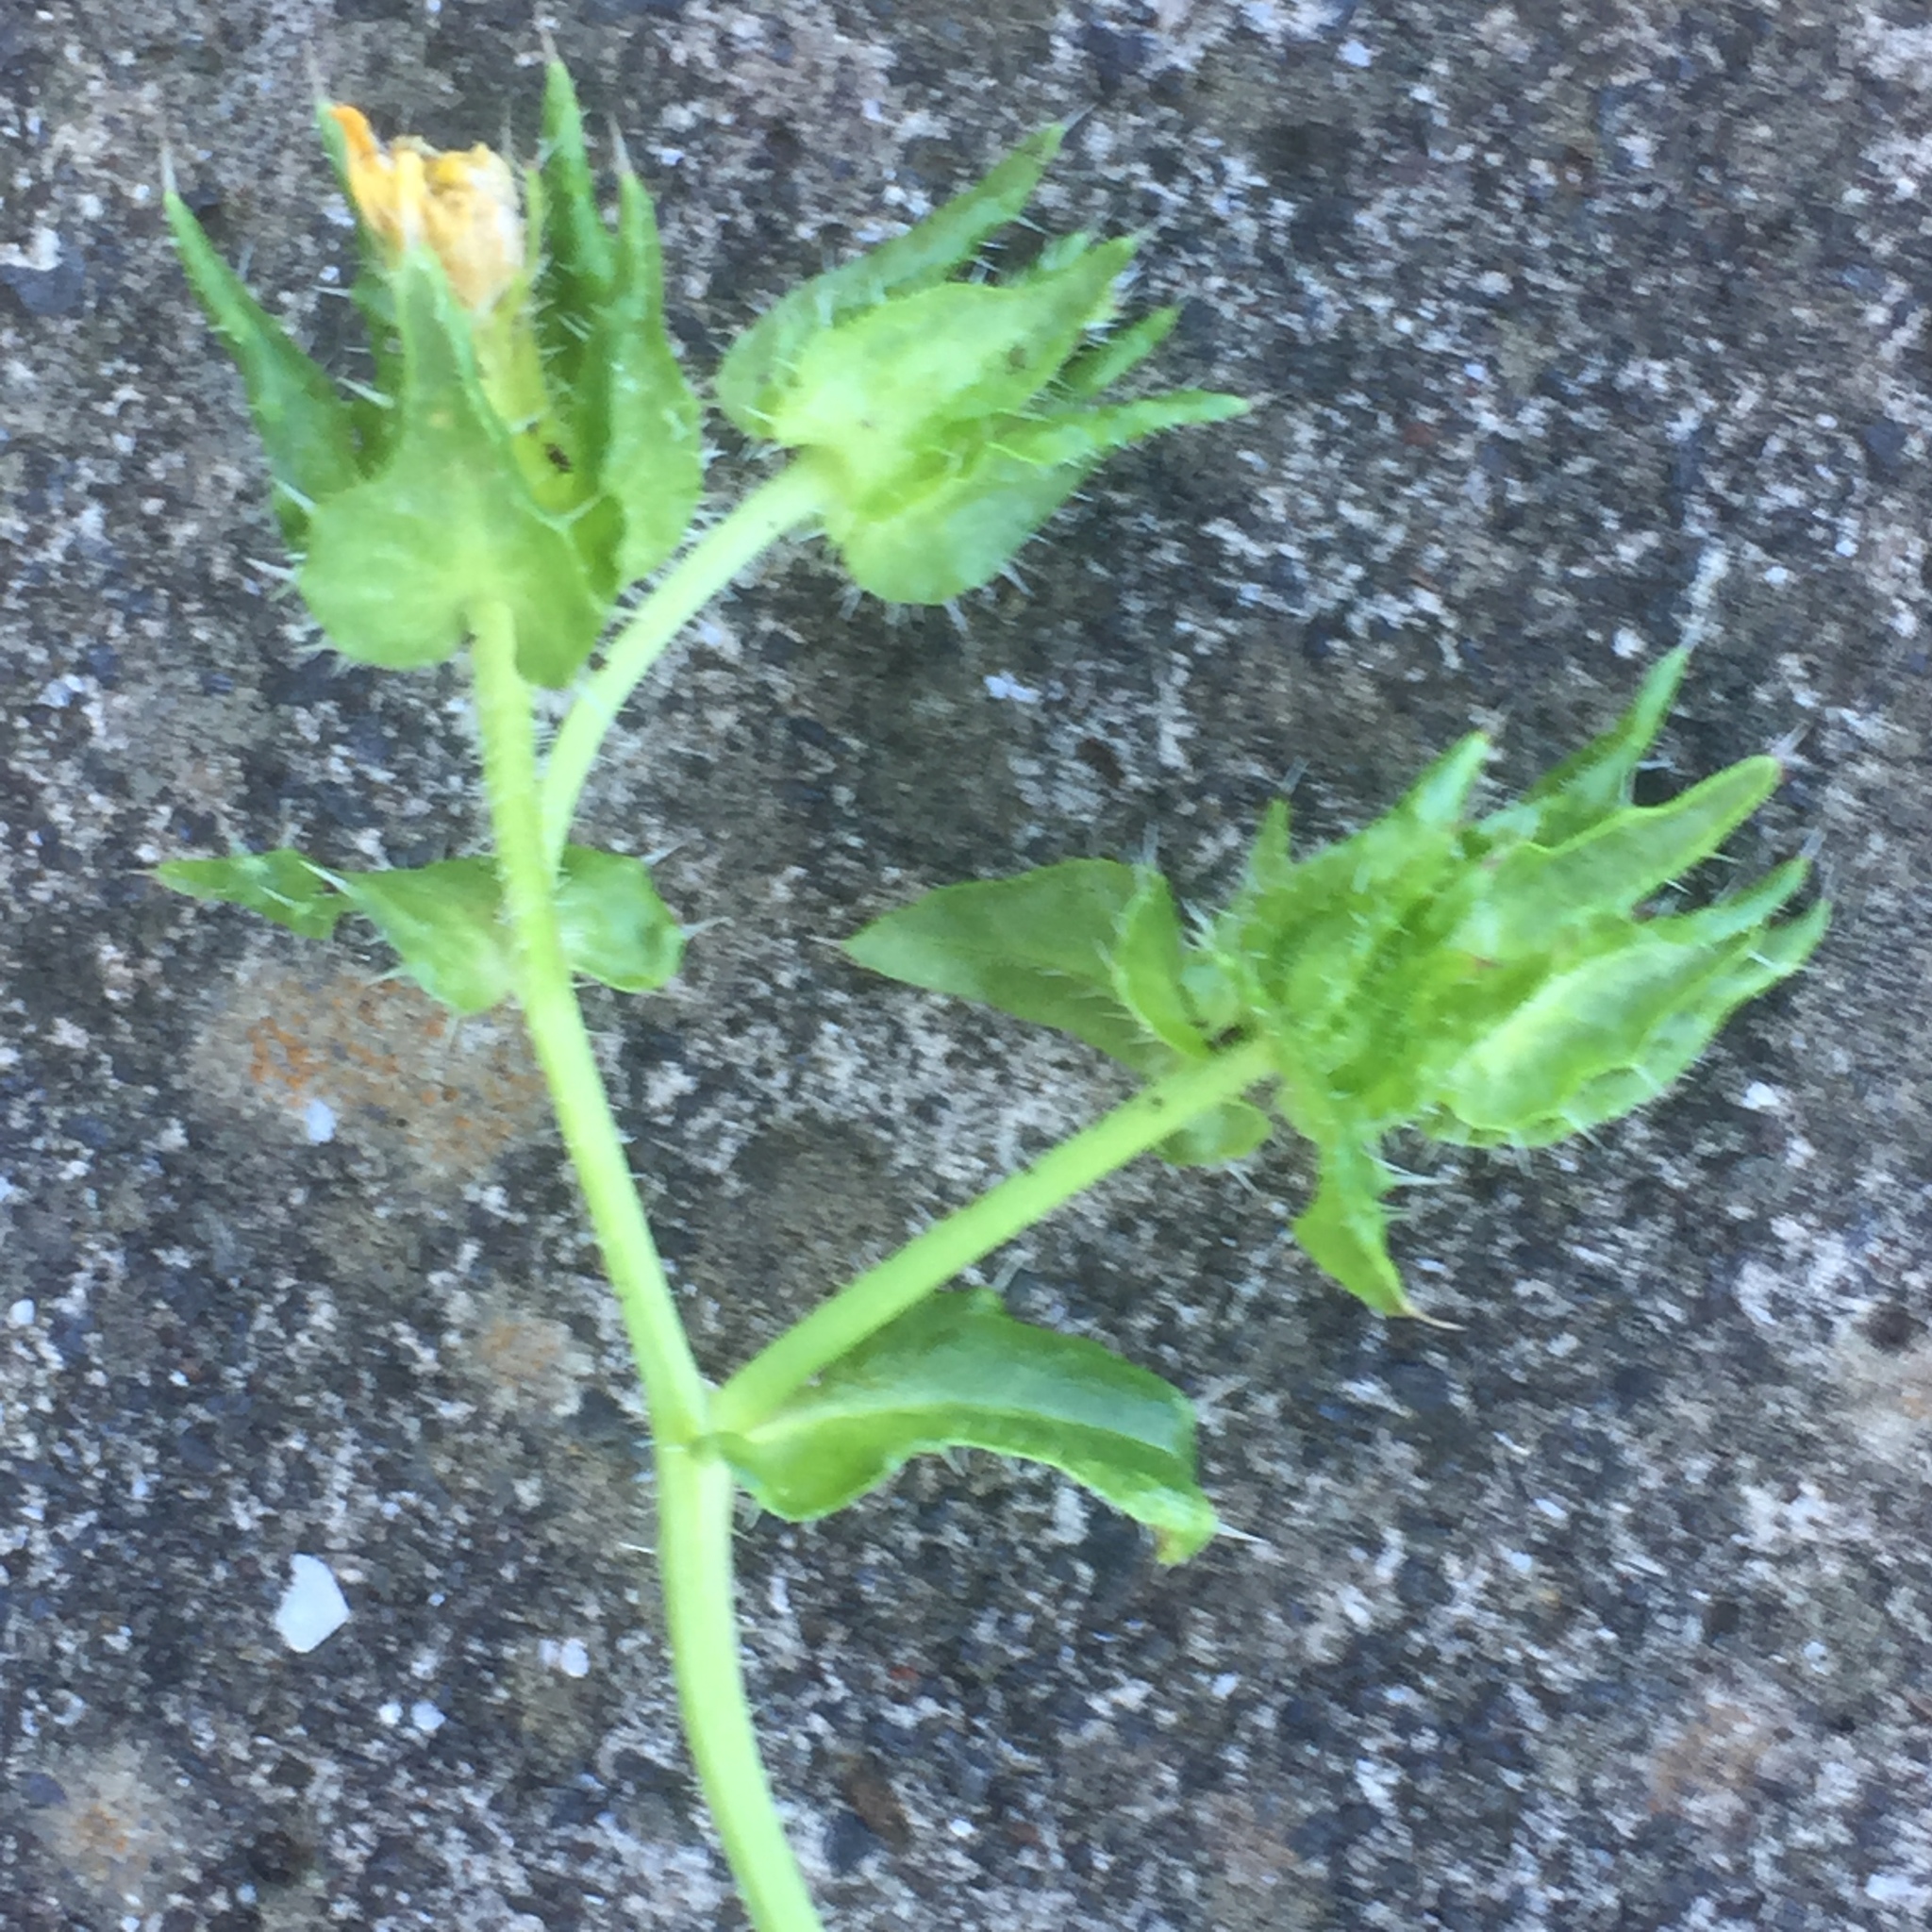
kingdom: Plantae
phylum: Tracheophyta
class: Magnoliopsida
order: Asterales
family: Asteraceae
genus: Helminthotheca
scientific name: Helminthotheca echioides
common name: Ox-tongue
